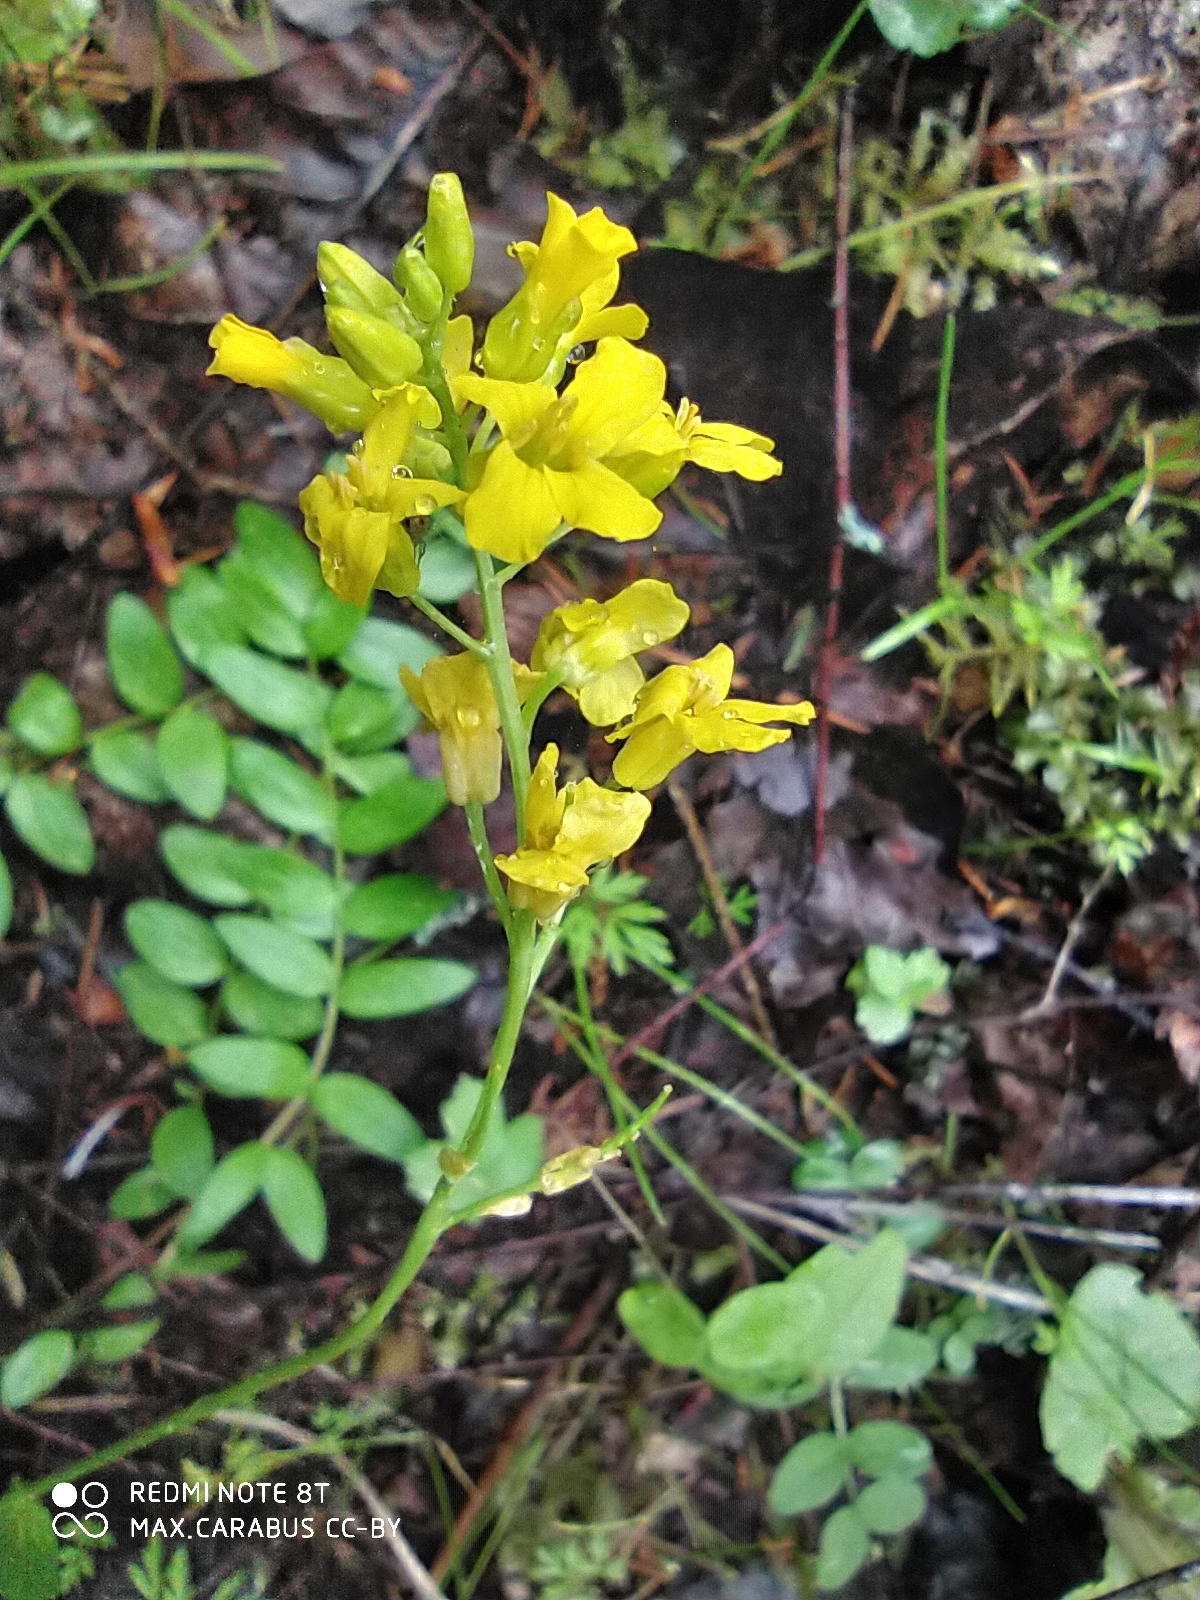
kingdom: Plantae
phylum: Tracheophyta
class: Magnoliopsida
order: Brassicales
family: Brassicaceae
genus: Barbarea
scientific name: Barbarea vulgaris
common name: Cressy-greens
